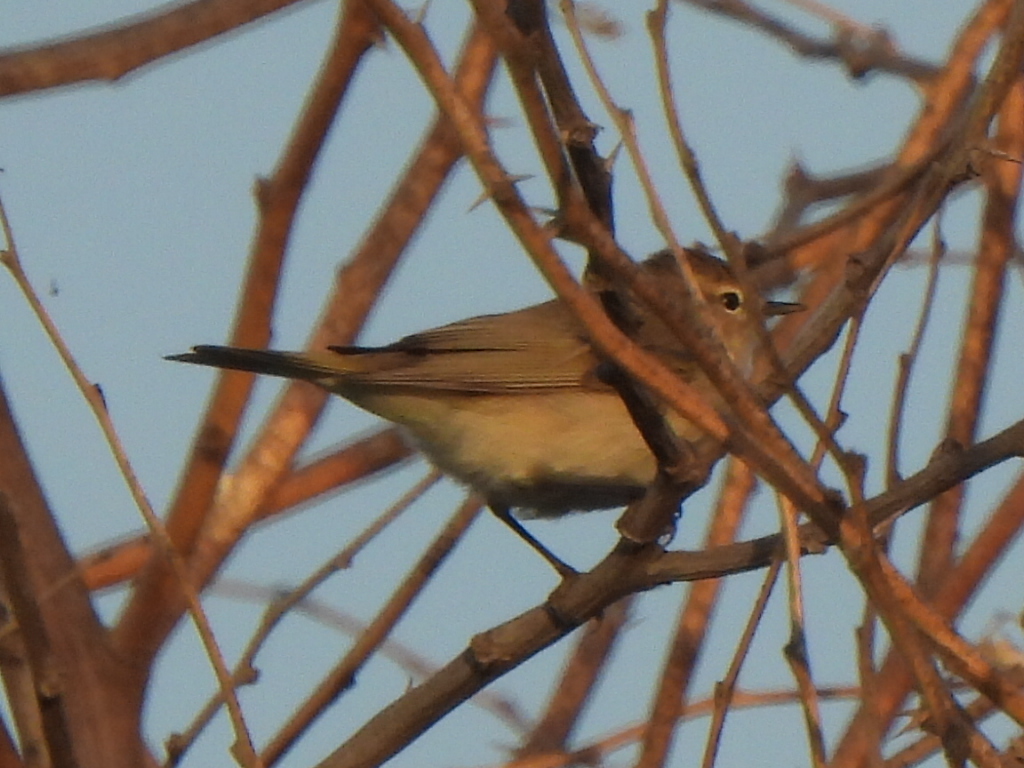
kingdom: Animalia
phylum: Chordata
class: Aves
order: Passeriformes
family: Phylloscopidae
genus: Phylloscopus
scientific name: Phylloscopus collybita
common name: Common chiffchaff
